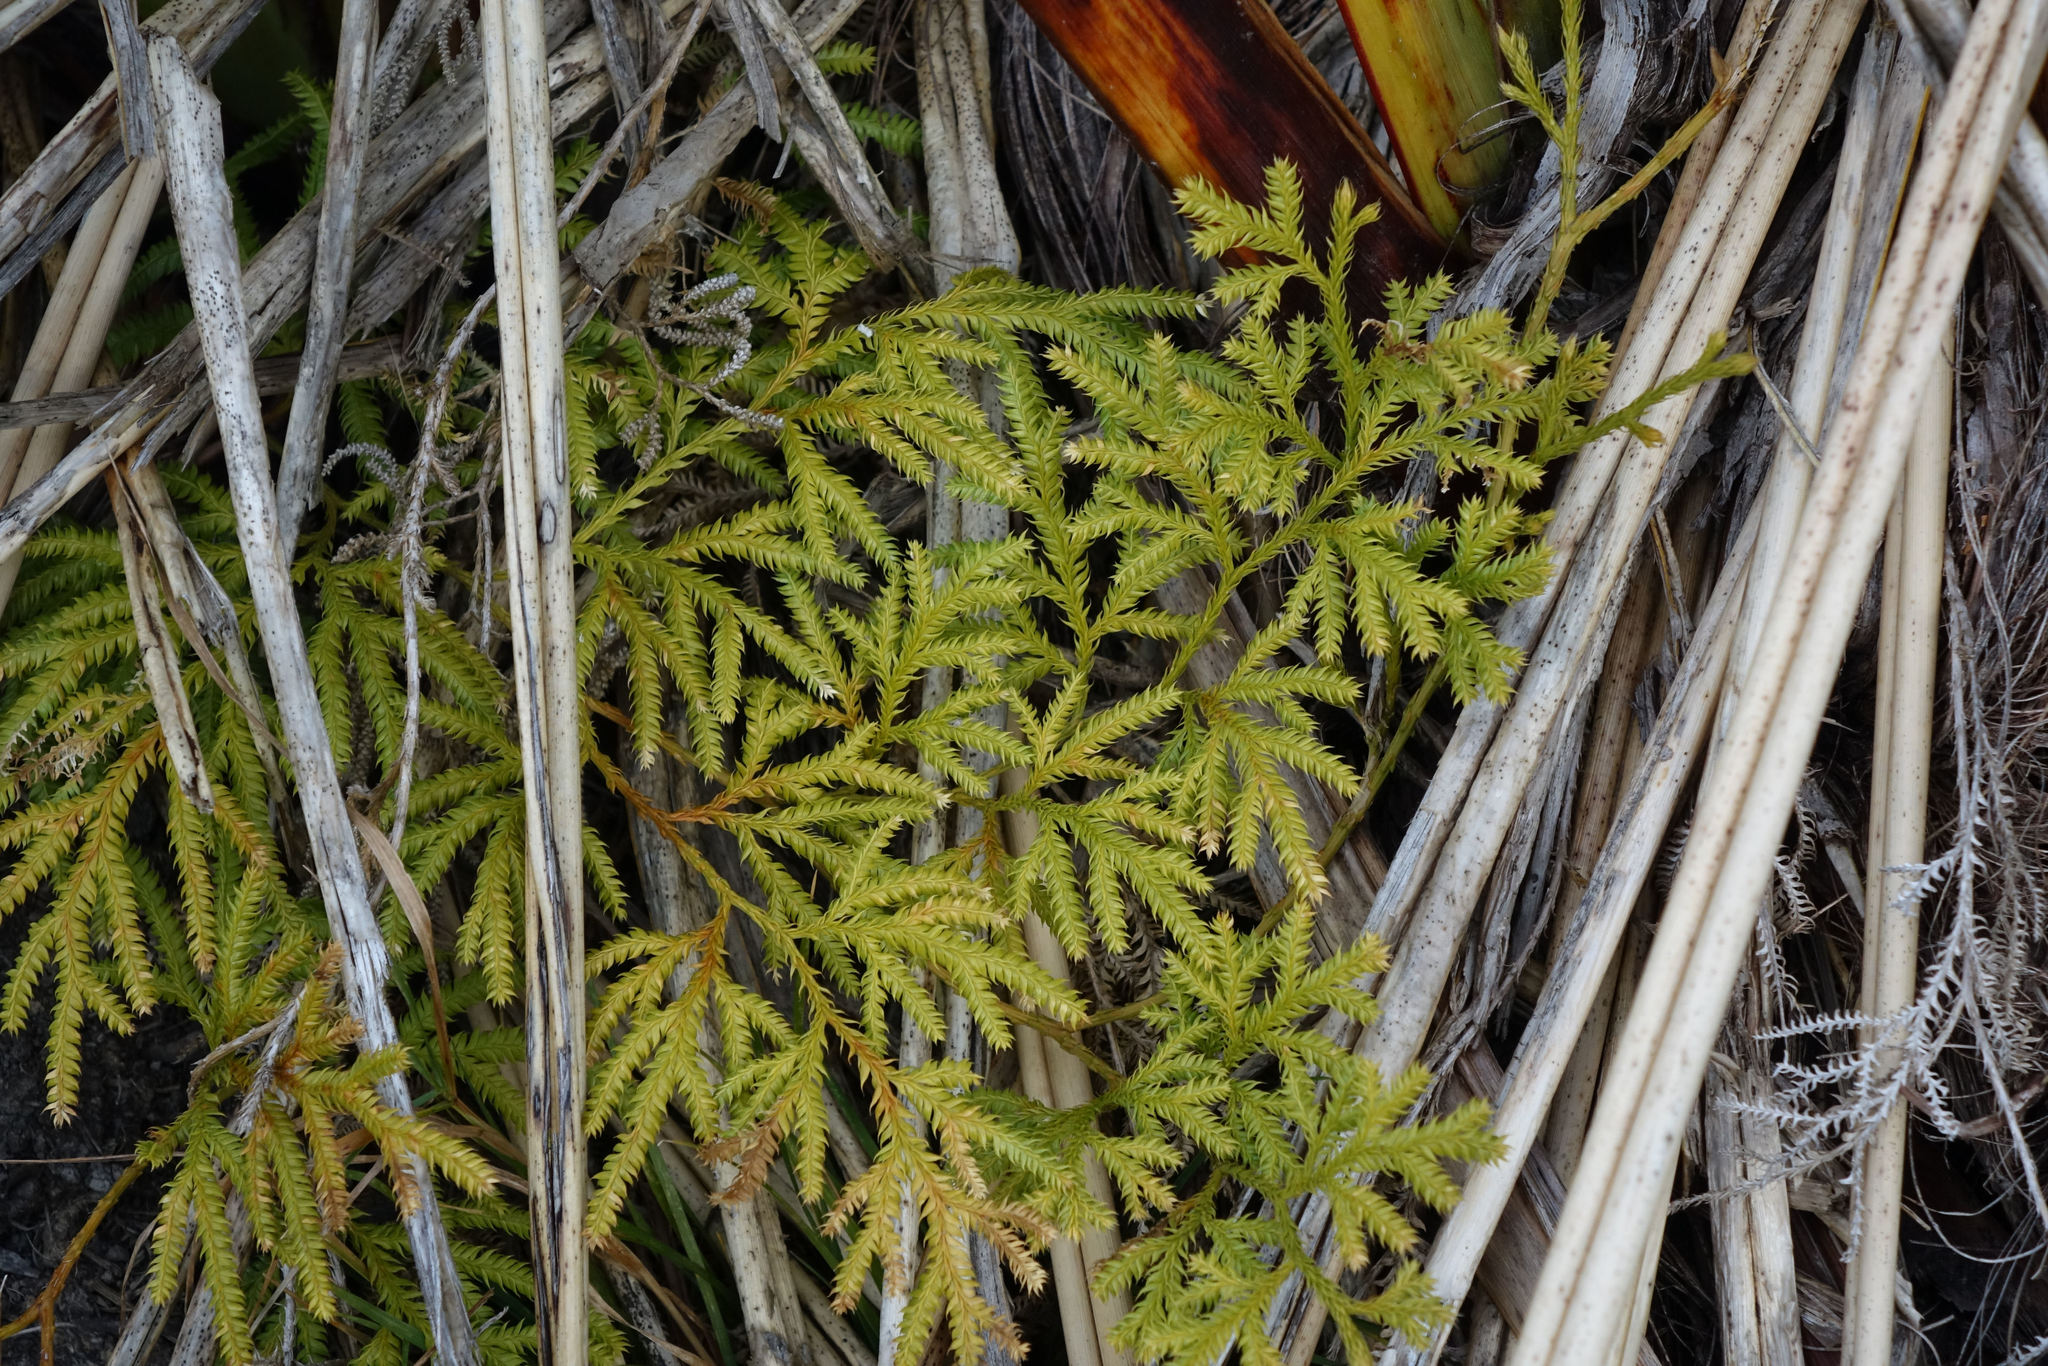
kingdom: Plantae
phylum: Tracheophyta
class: Lycopodiopsida
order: Lycopodiales
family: Lycopodiaceae
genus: Lycopodium
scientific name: Lycopodium volubile
